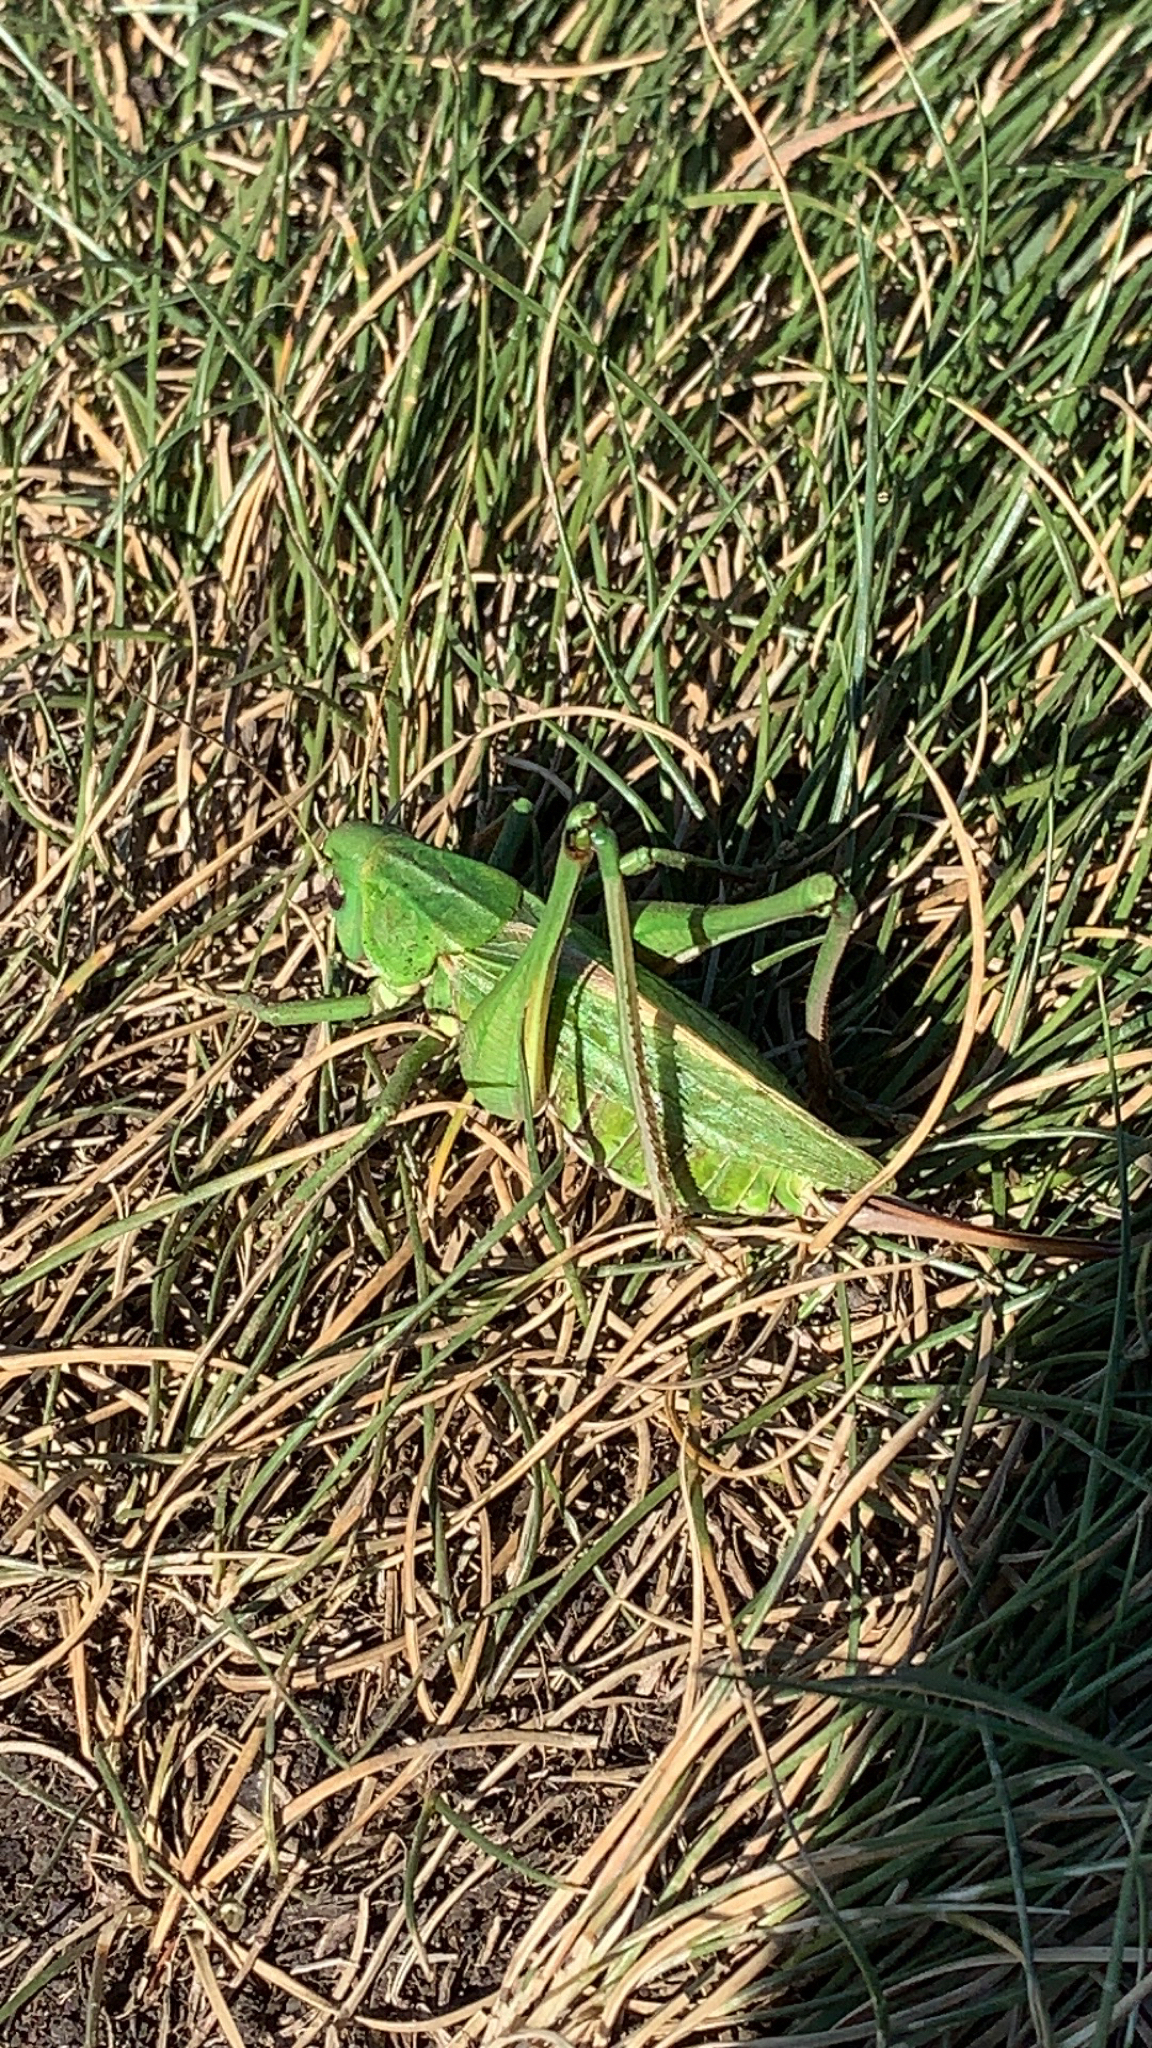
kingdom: Animalia
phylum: Arthropoda
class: Insecta
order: Orthoptera
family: Tettigoniidae
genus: Decticus
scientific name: Decticus verrucivorus
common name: Wart-biter
